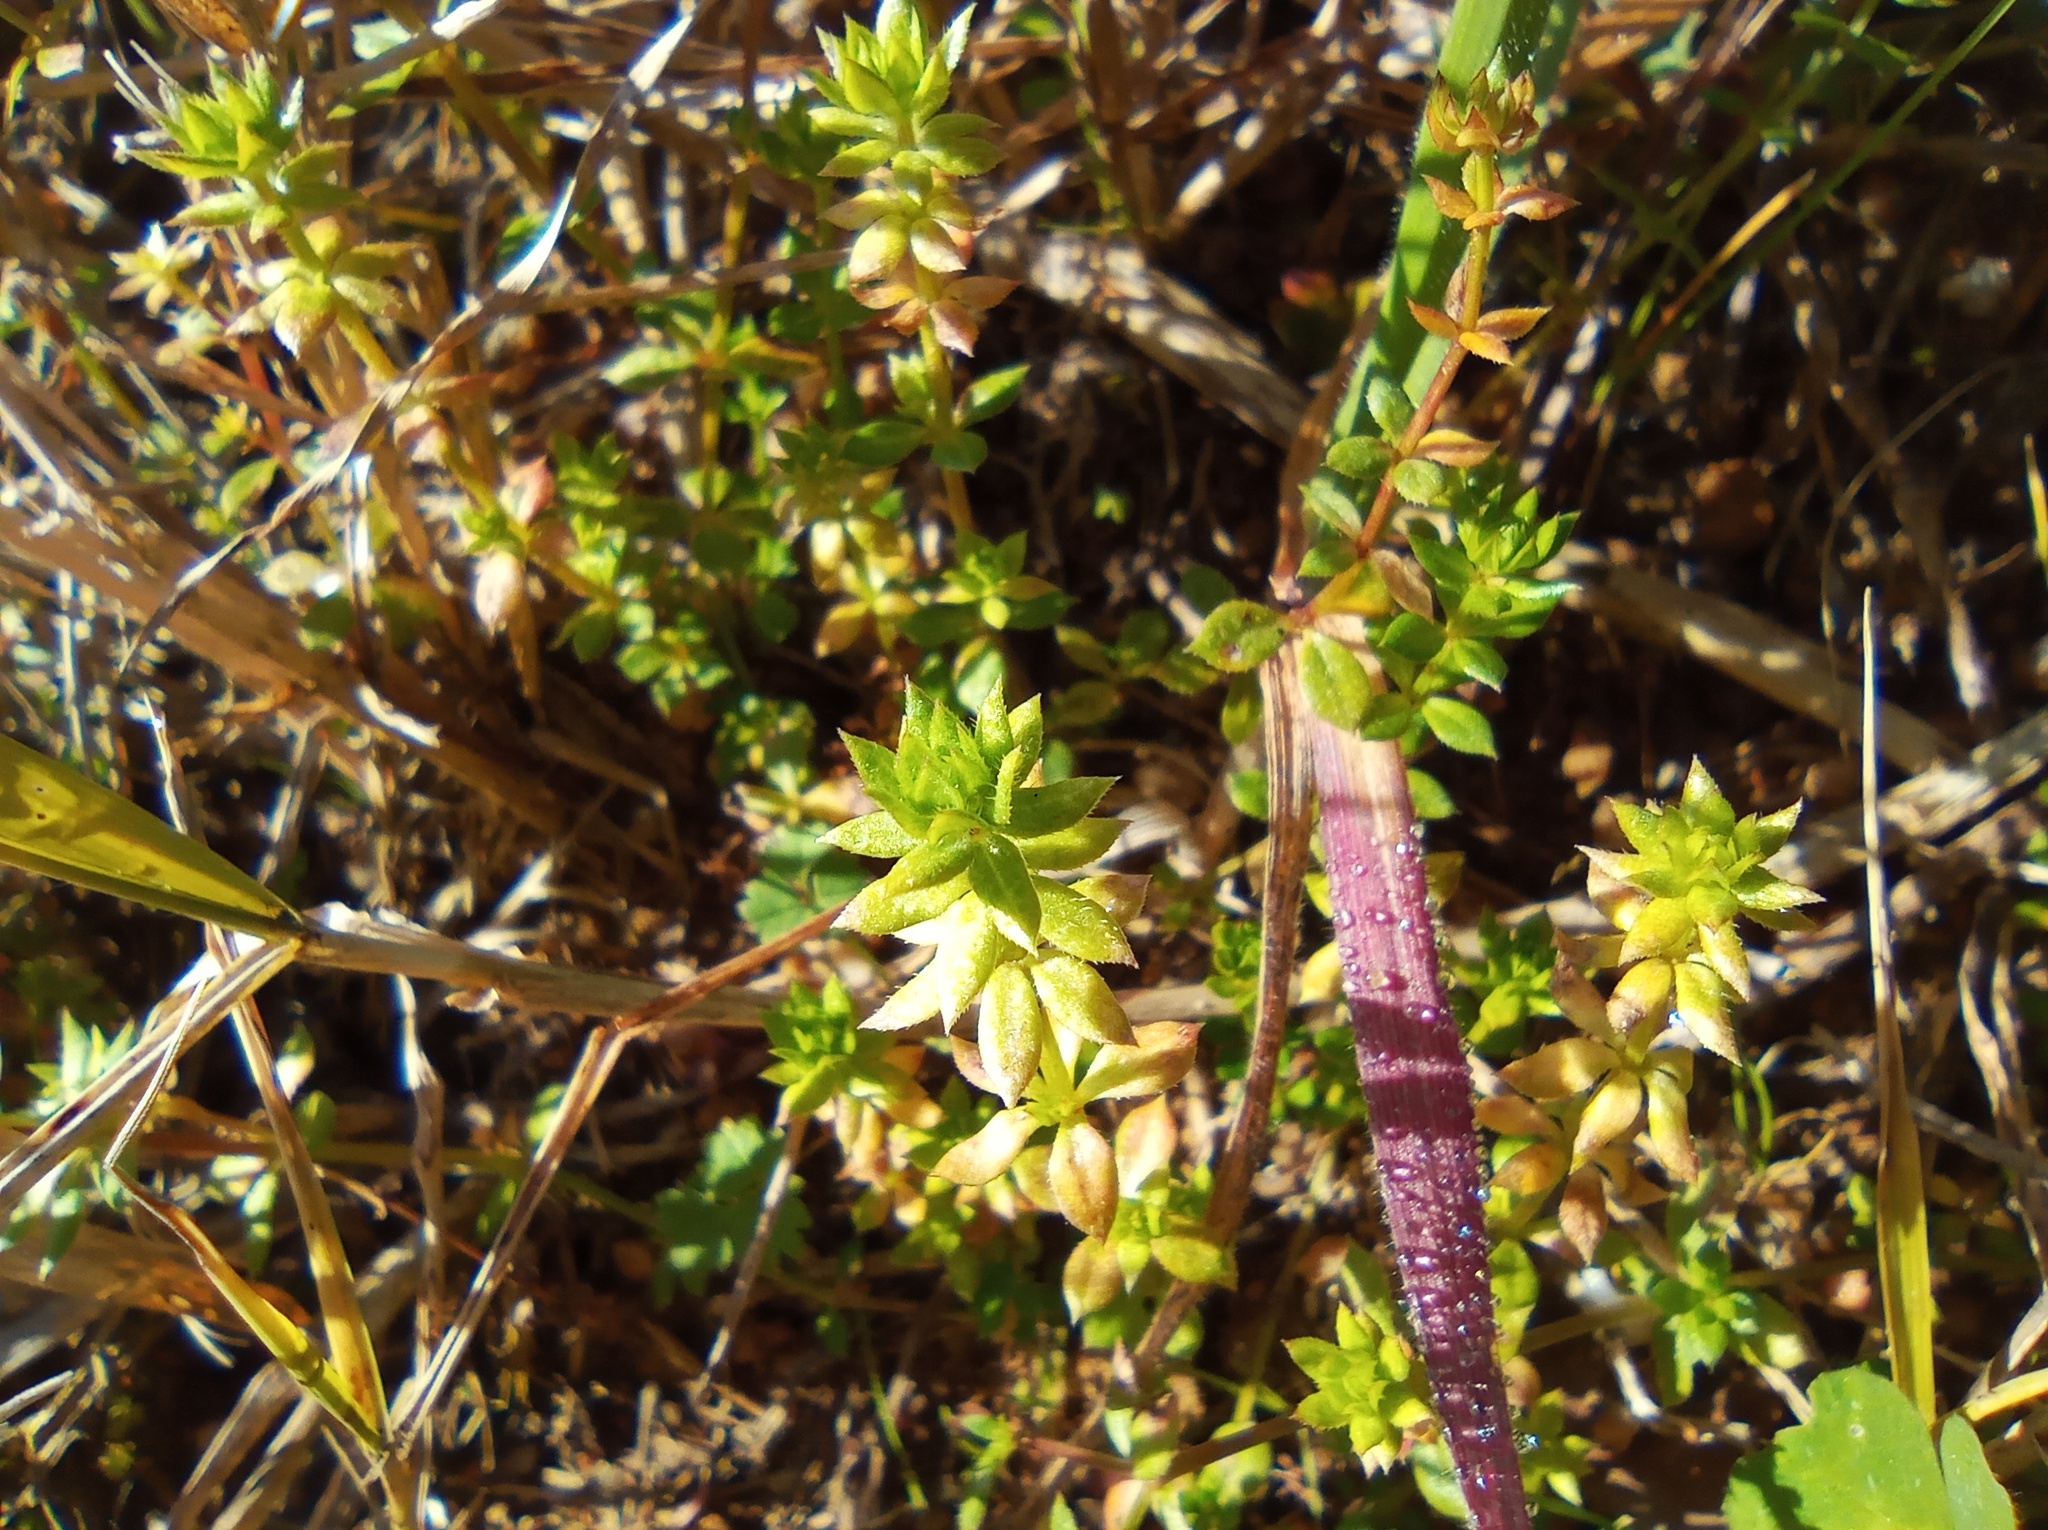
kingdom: Plantae
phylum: Tracheophyta
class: Magnoliopsida
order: Gentianales
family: Rubiaceae
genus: Sherardia
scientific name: Sherardia arvensis
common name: Field madder
